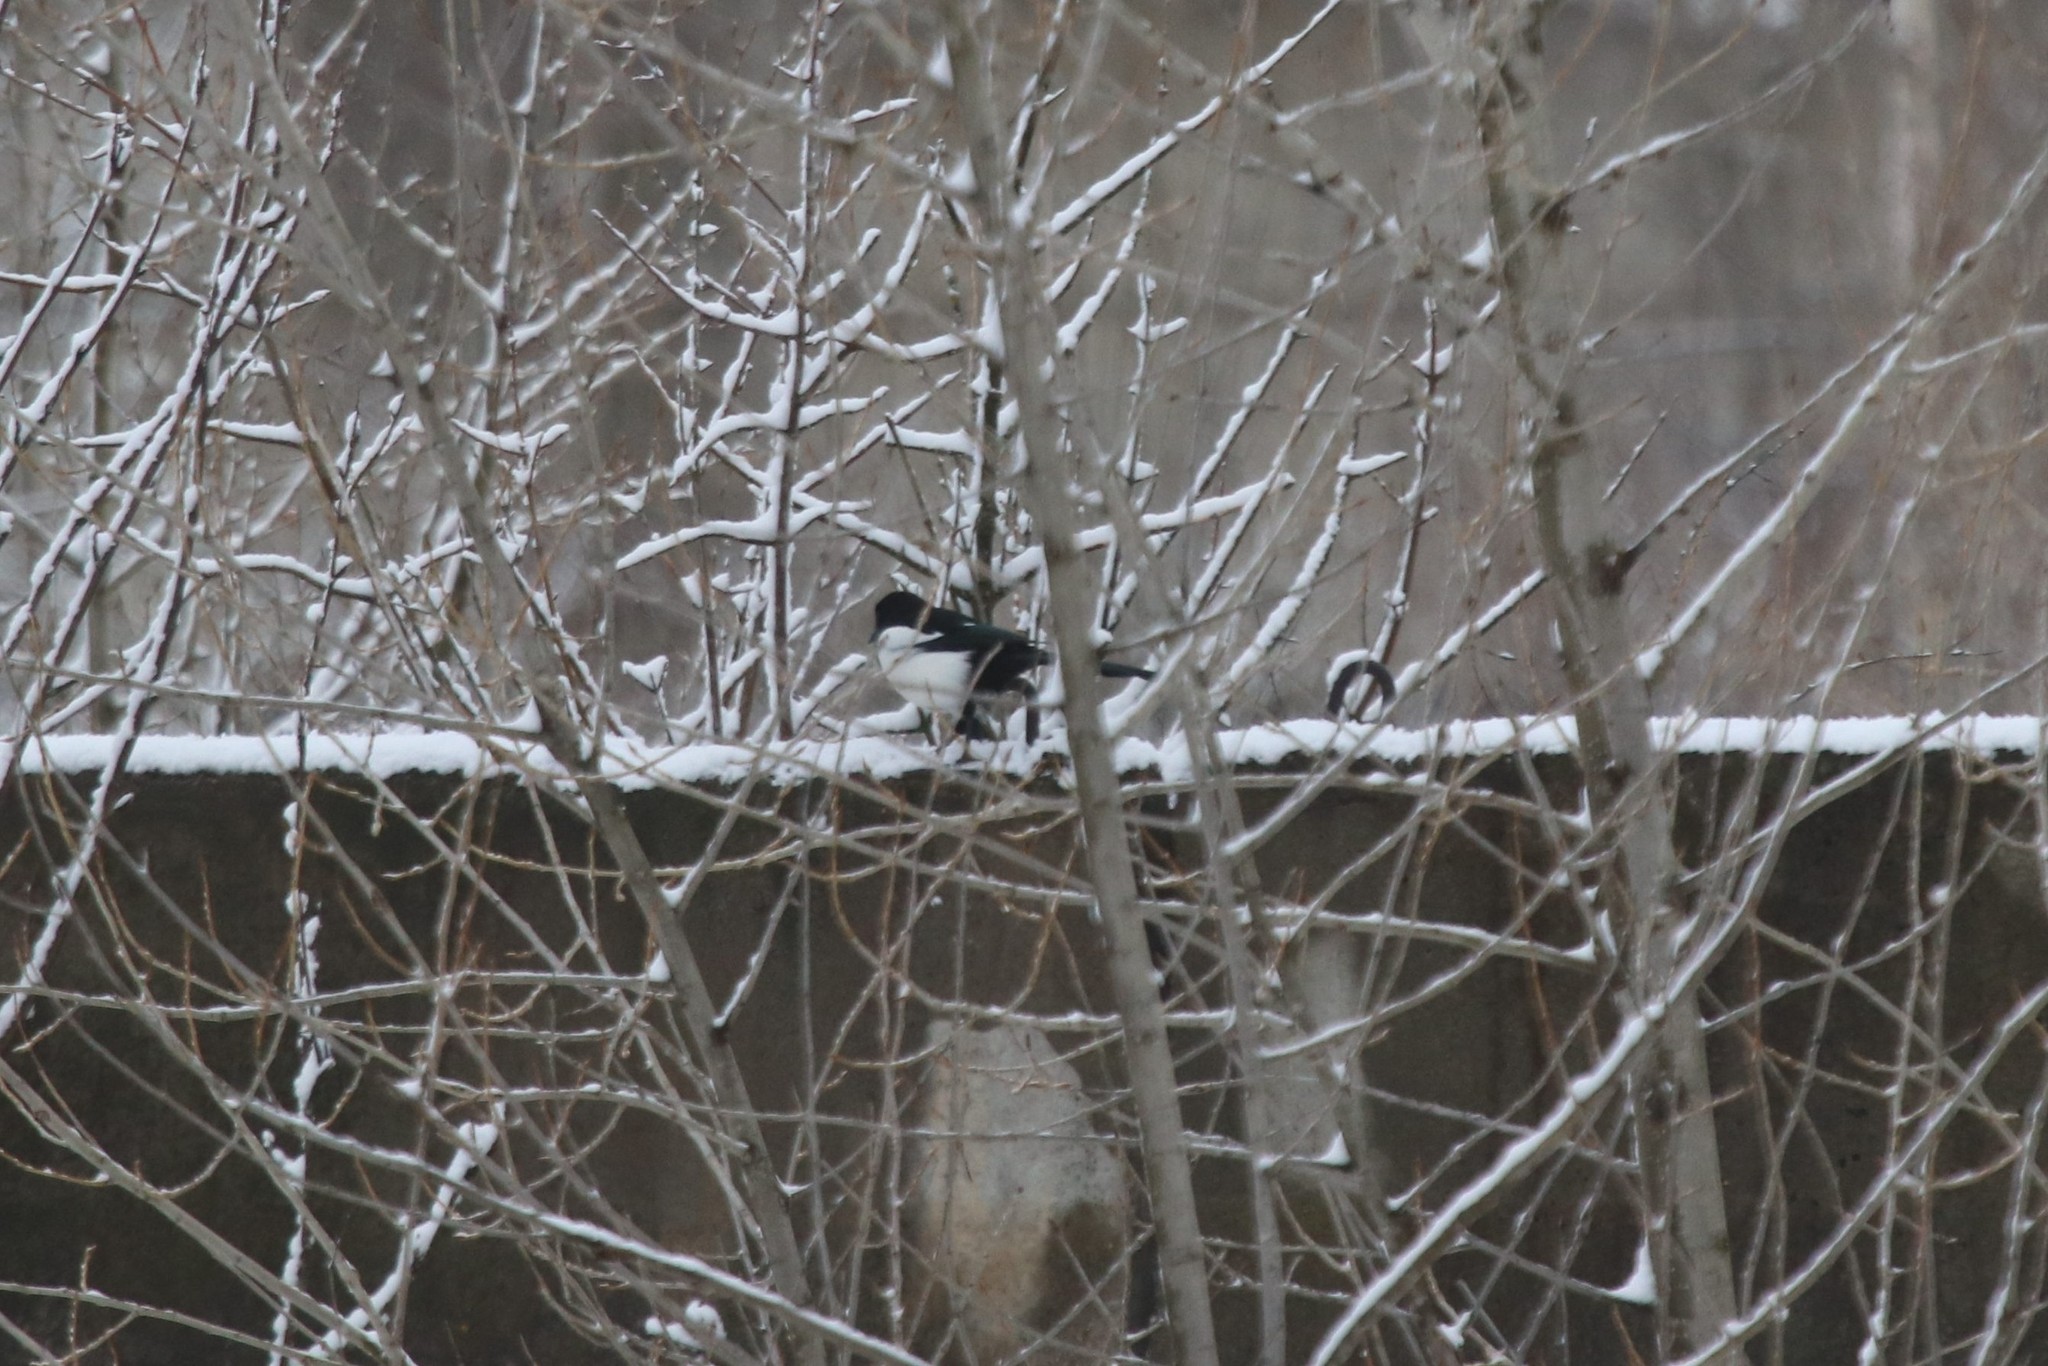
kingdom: Animalia
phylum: Chordata
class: Aves
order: Passeriformes
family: Corvidae
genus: Pica
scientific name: Pica pica
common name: Eurasian magpie
